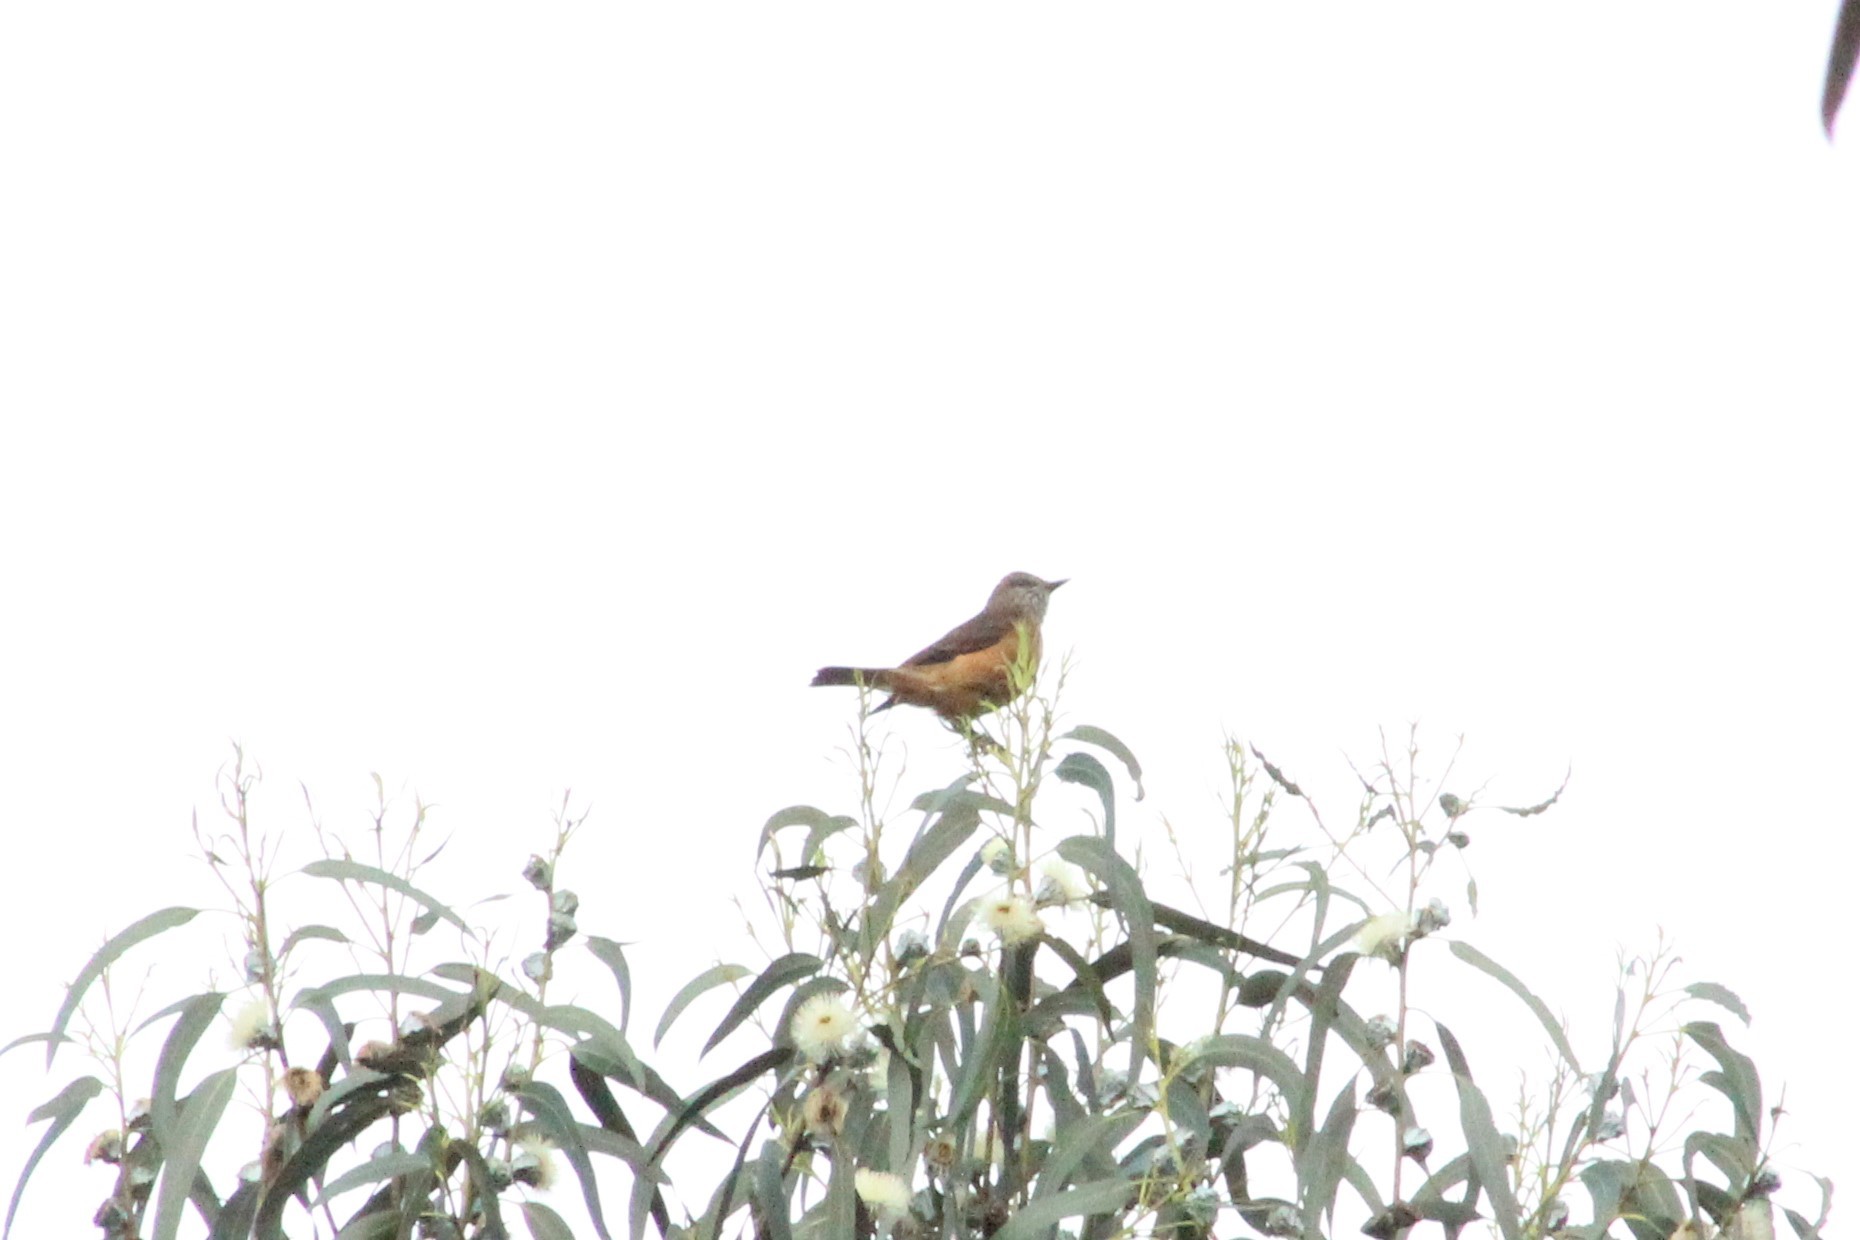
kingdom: Animalia
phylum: Chordata
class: Aves
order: Passeriformes
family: Tyrannidae
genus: Myiotheretes
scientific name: Myiotheretes striaticollis
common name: Streak-throated bush tyrant
